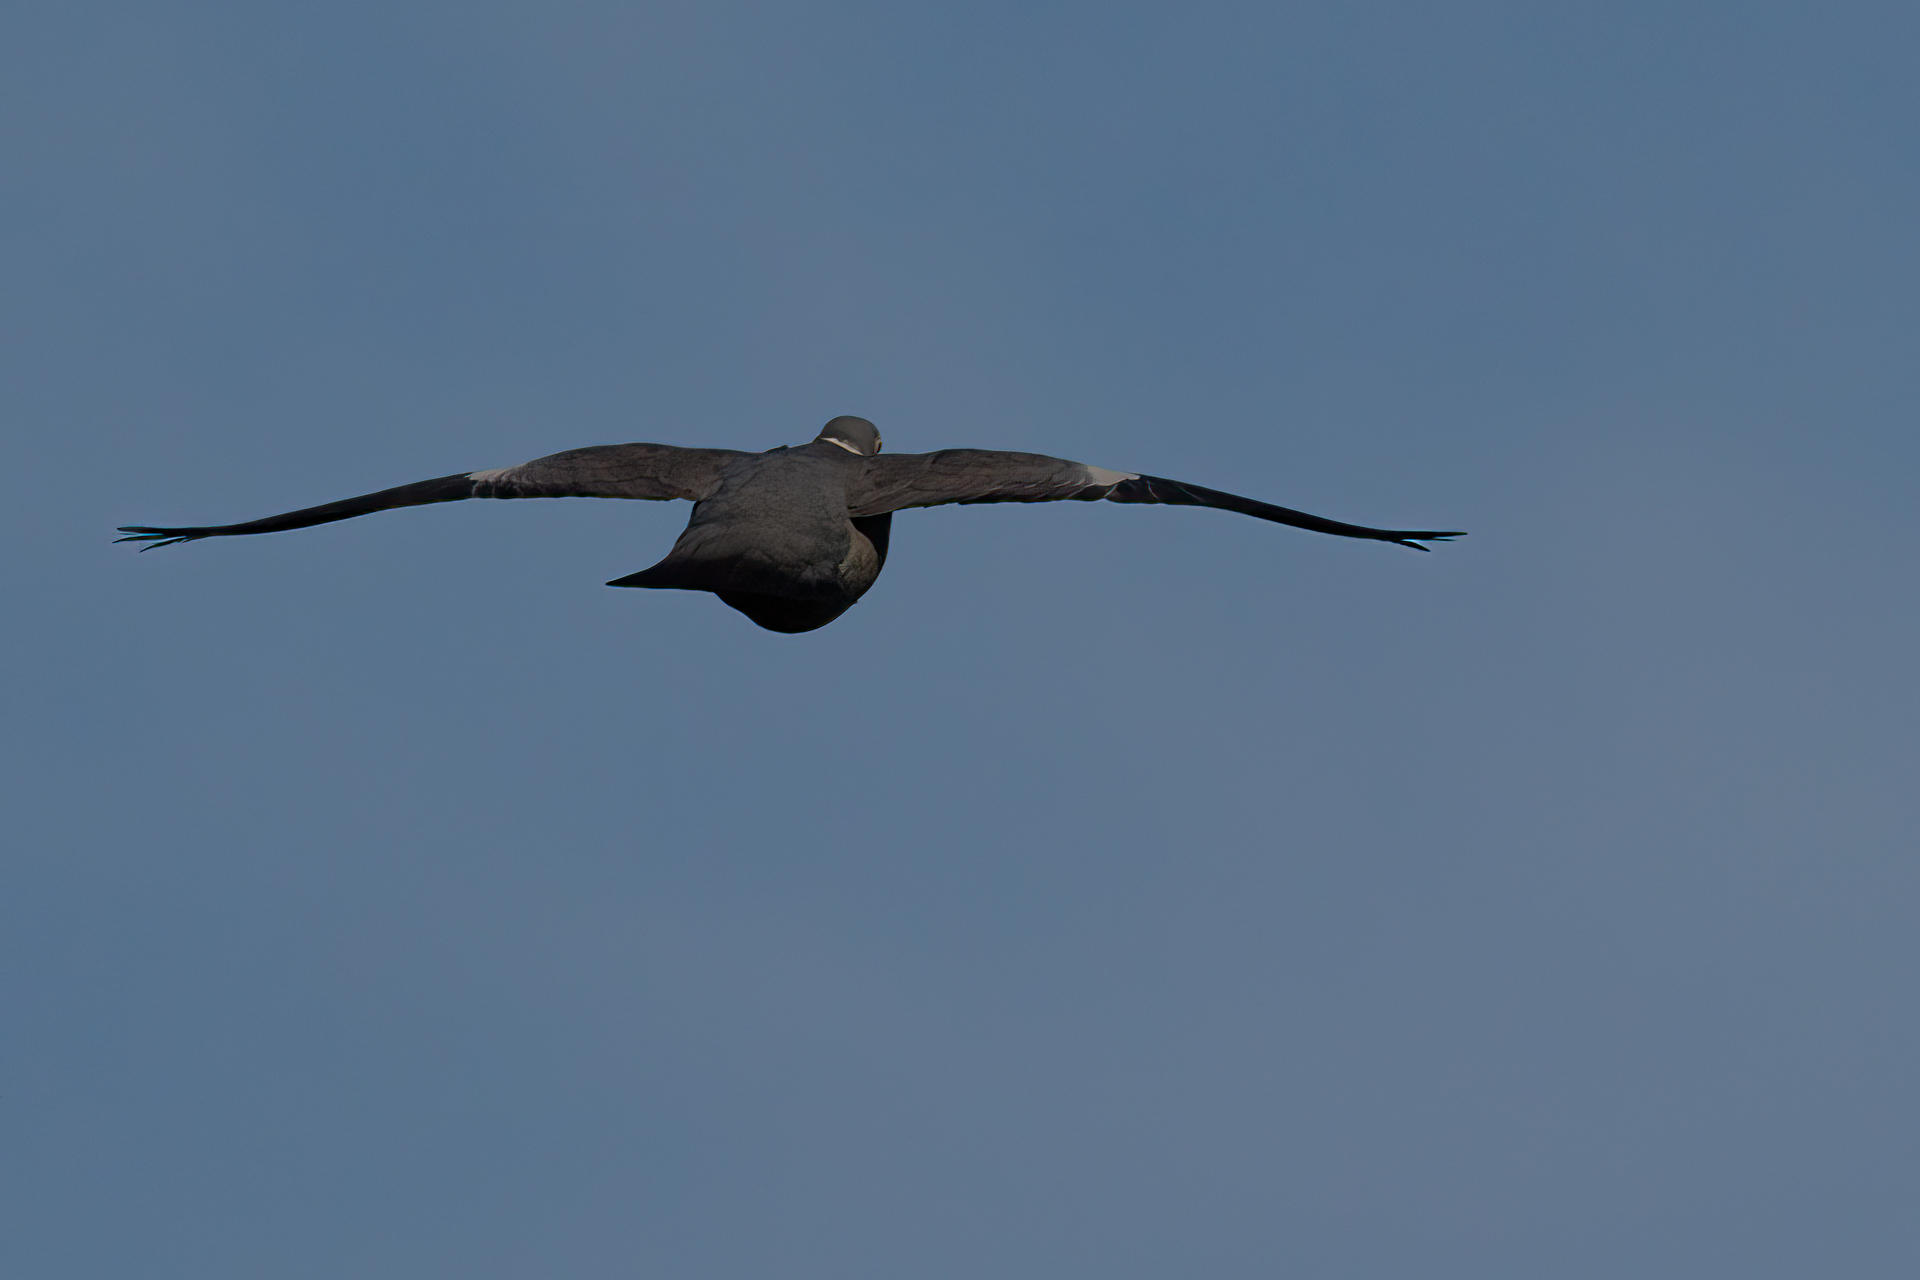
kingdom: Animalia
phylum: Chordata
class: Aves
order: Columbiformes
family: Columbidae
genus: Columba
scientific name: Columba palumbus
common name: Common wood pigeon
